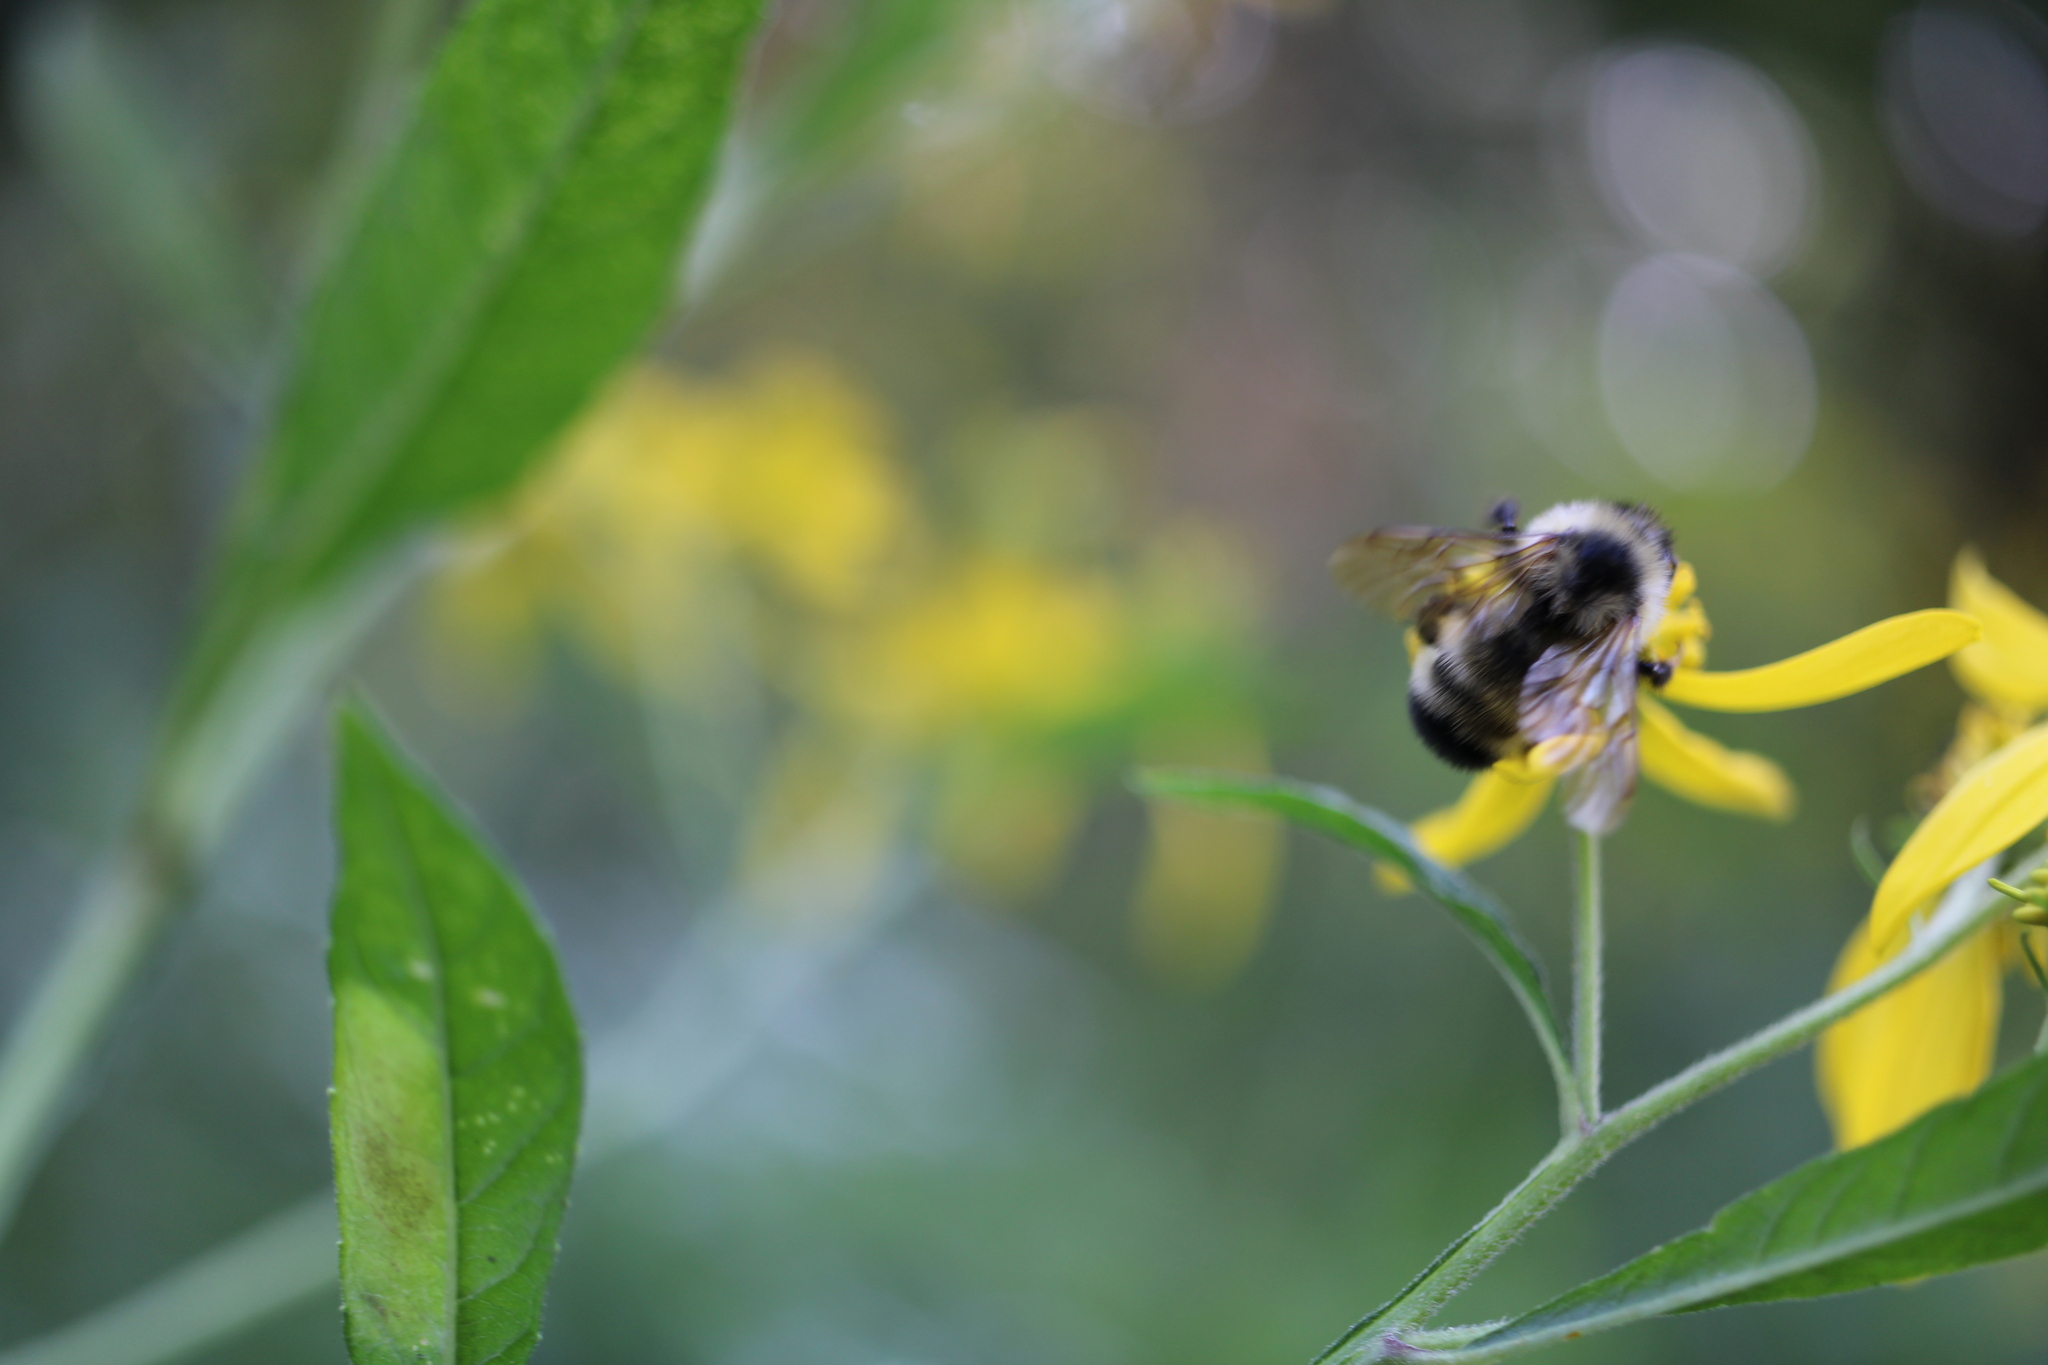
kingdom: Animalia
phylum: Arthropoda
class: Insecta
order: Hymenoptera
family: Apidae
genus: Bombus
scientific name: Bombus citrinus
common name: Lemon cuckoo bumble bee
